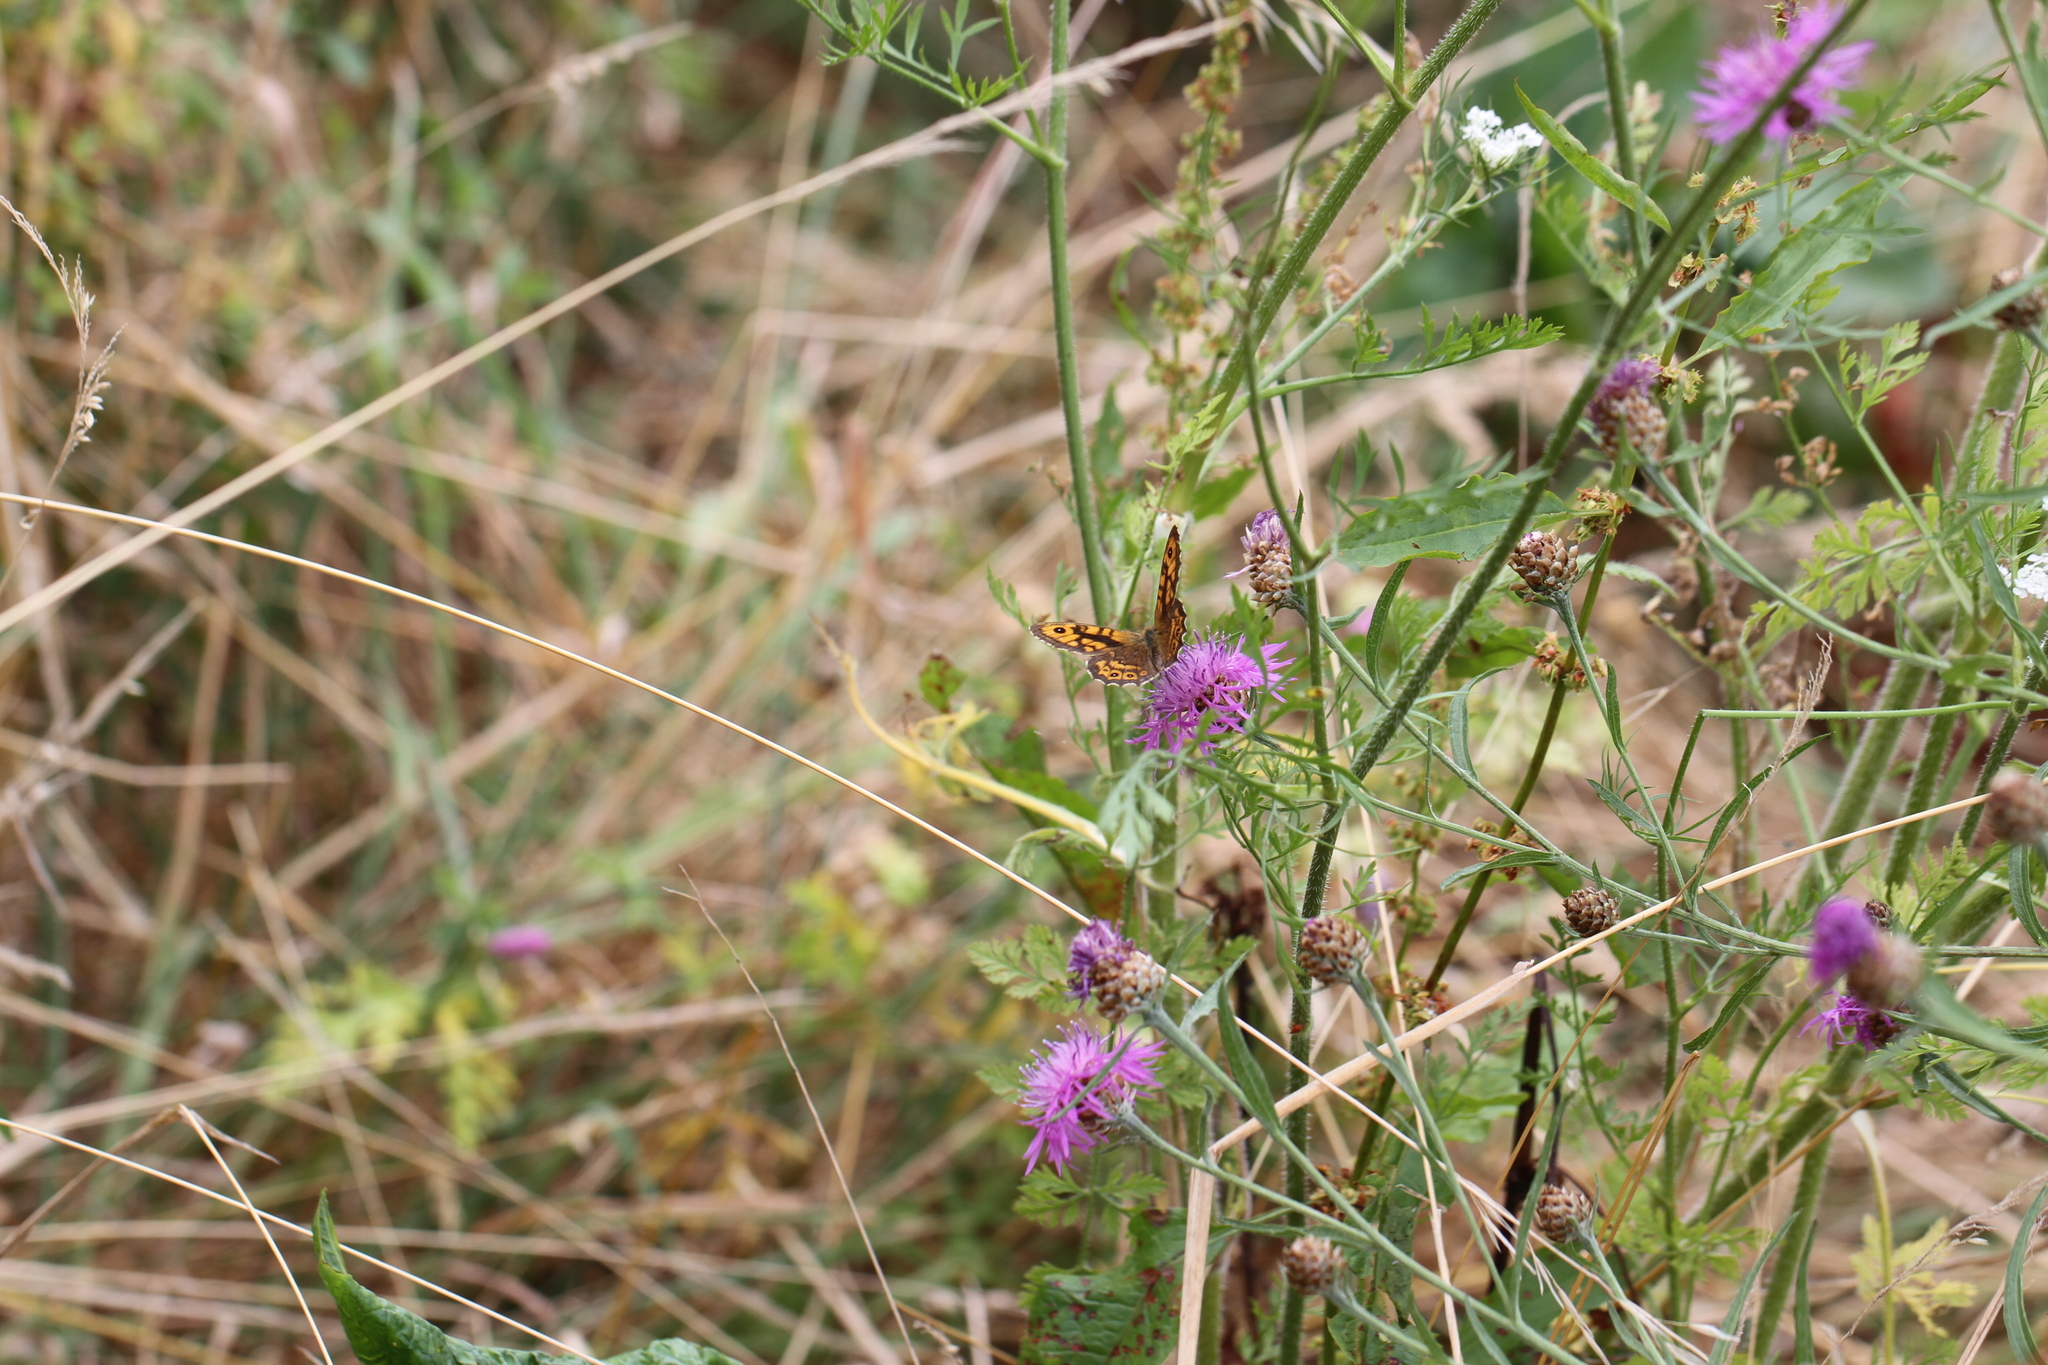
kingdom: Animalia
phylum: Arthropoda
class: Insecta
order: Lepidoptera
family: Nymphalidae
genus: Pararge
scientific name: Pararge Lasiommata megera
